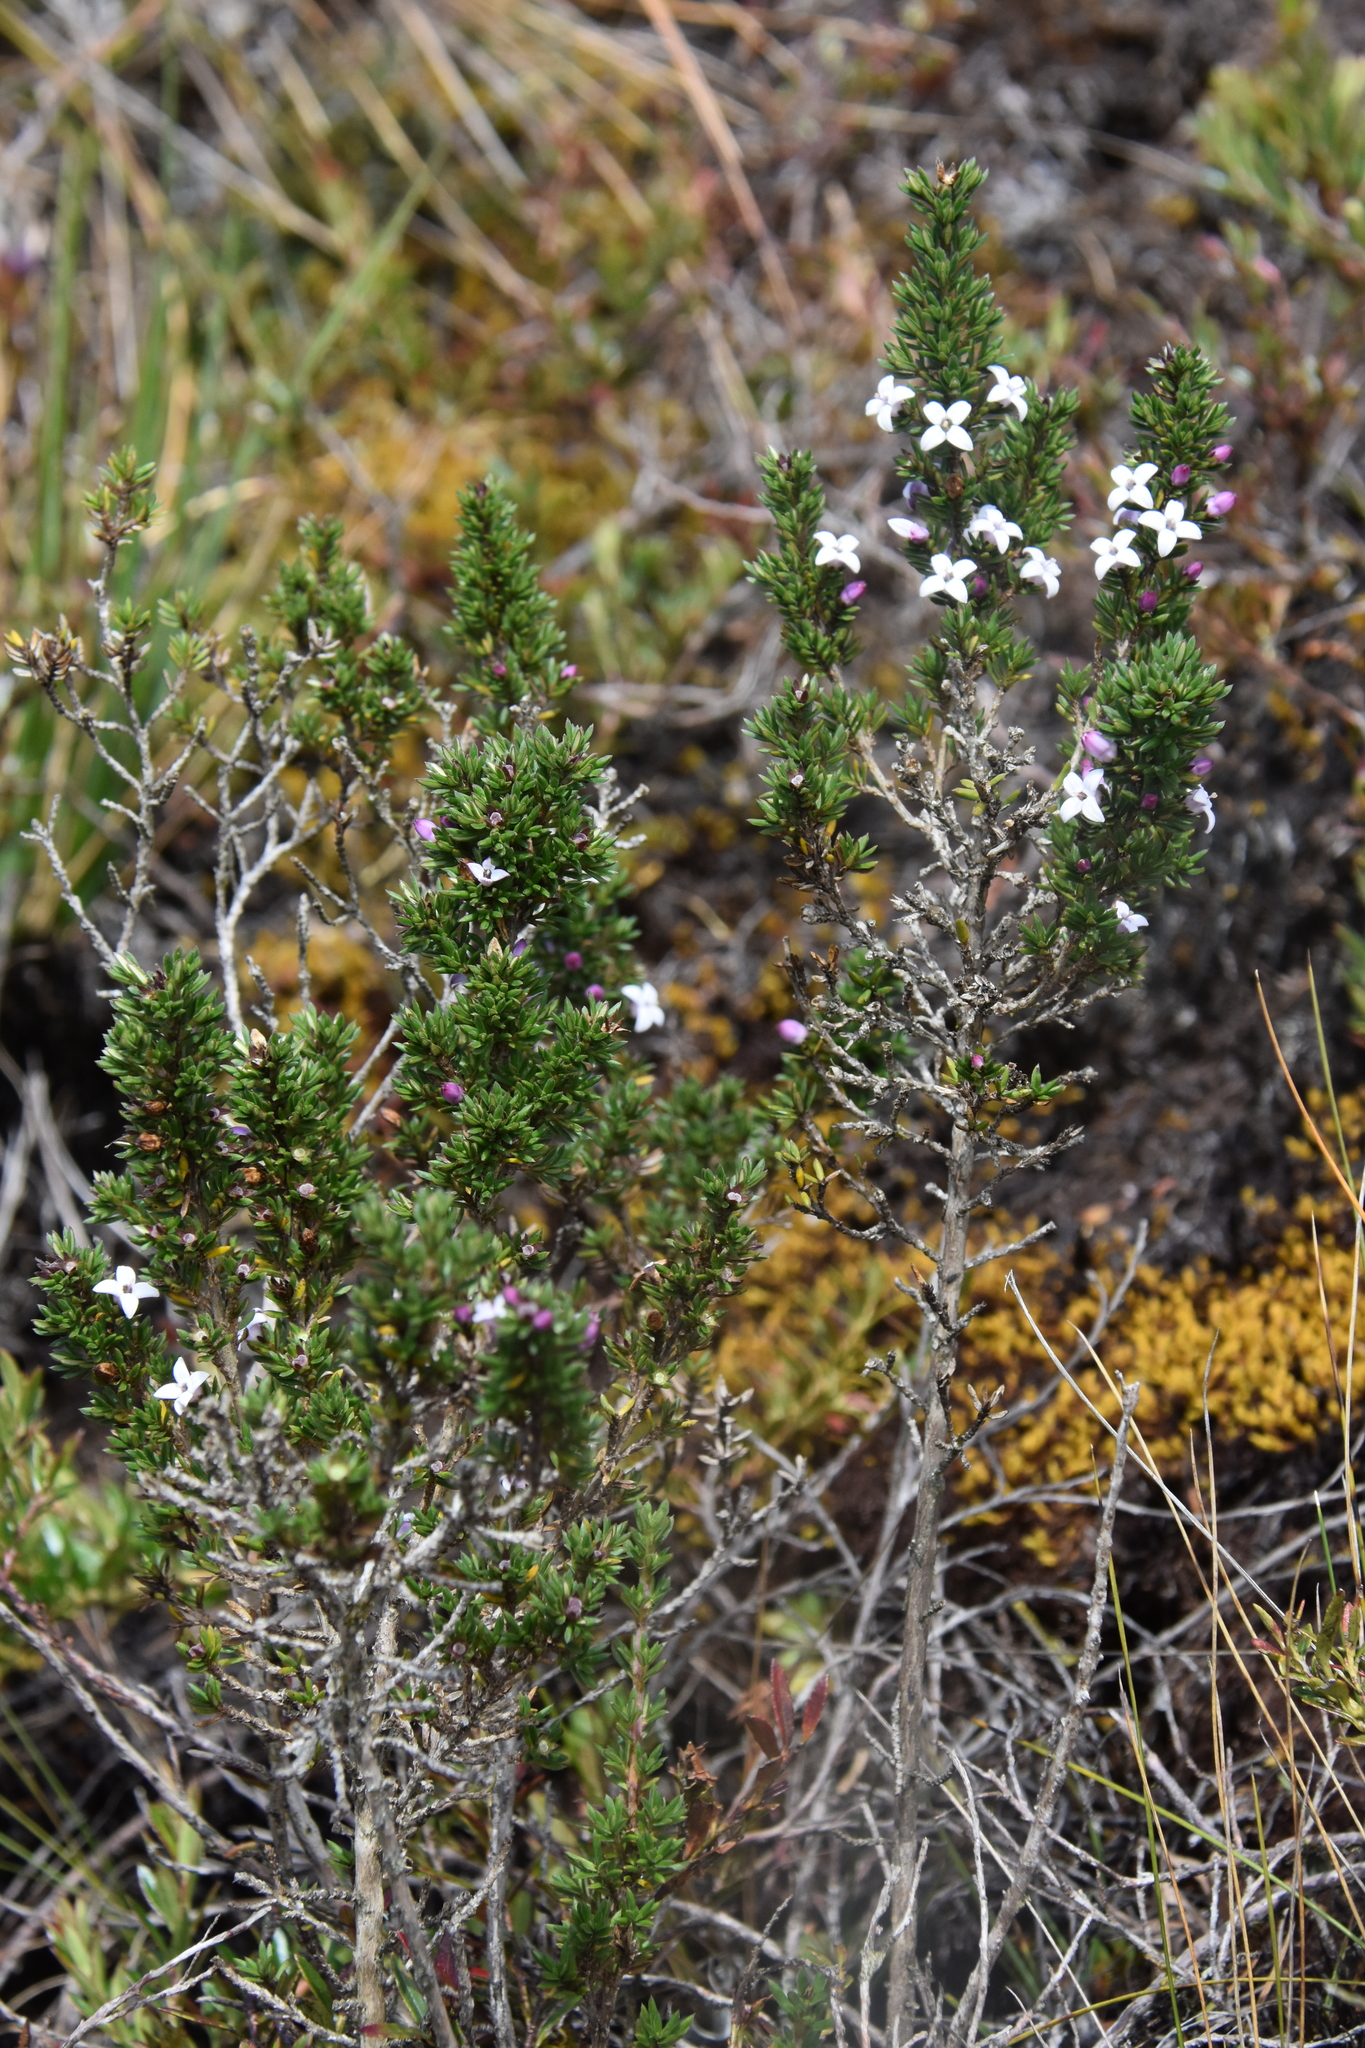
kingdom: Plantae
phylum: Tracheophyta
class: Magnoliopsida
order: Gentianales
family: Rubiaceae
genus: Arcytophyllum
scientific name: Arcytophyllum nitidum
